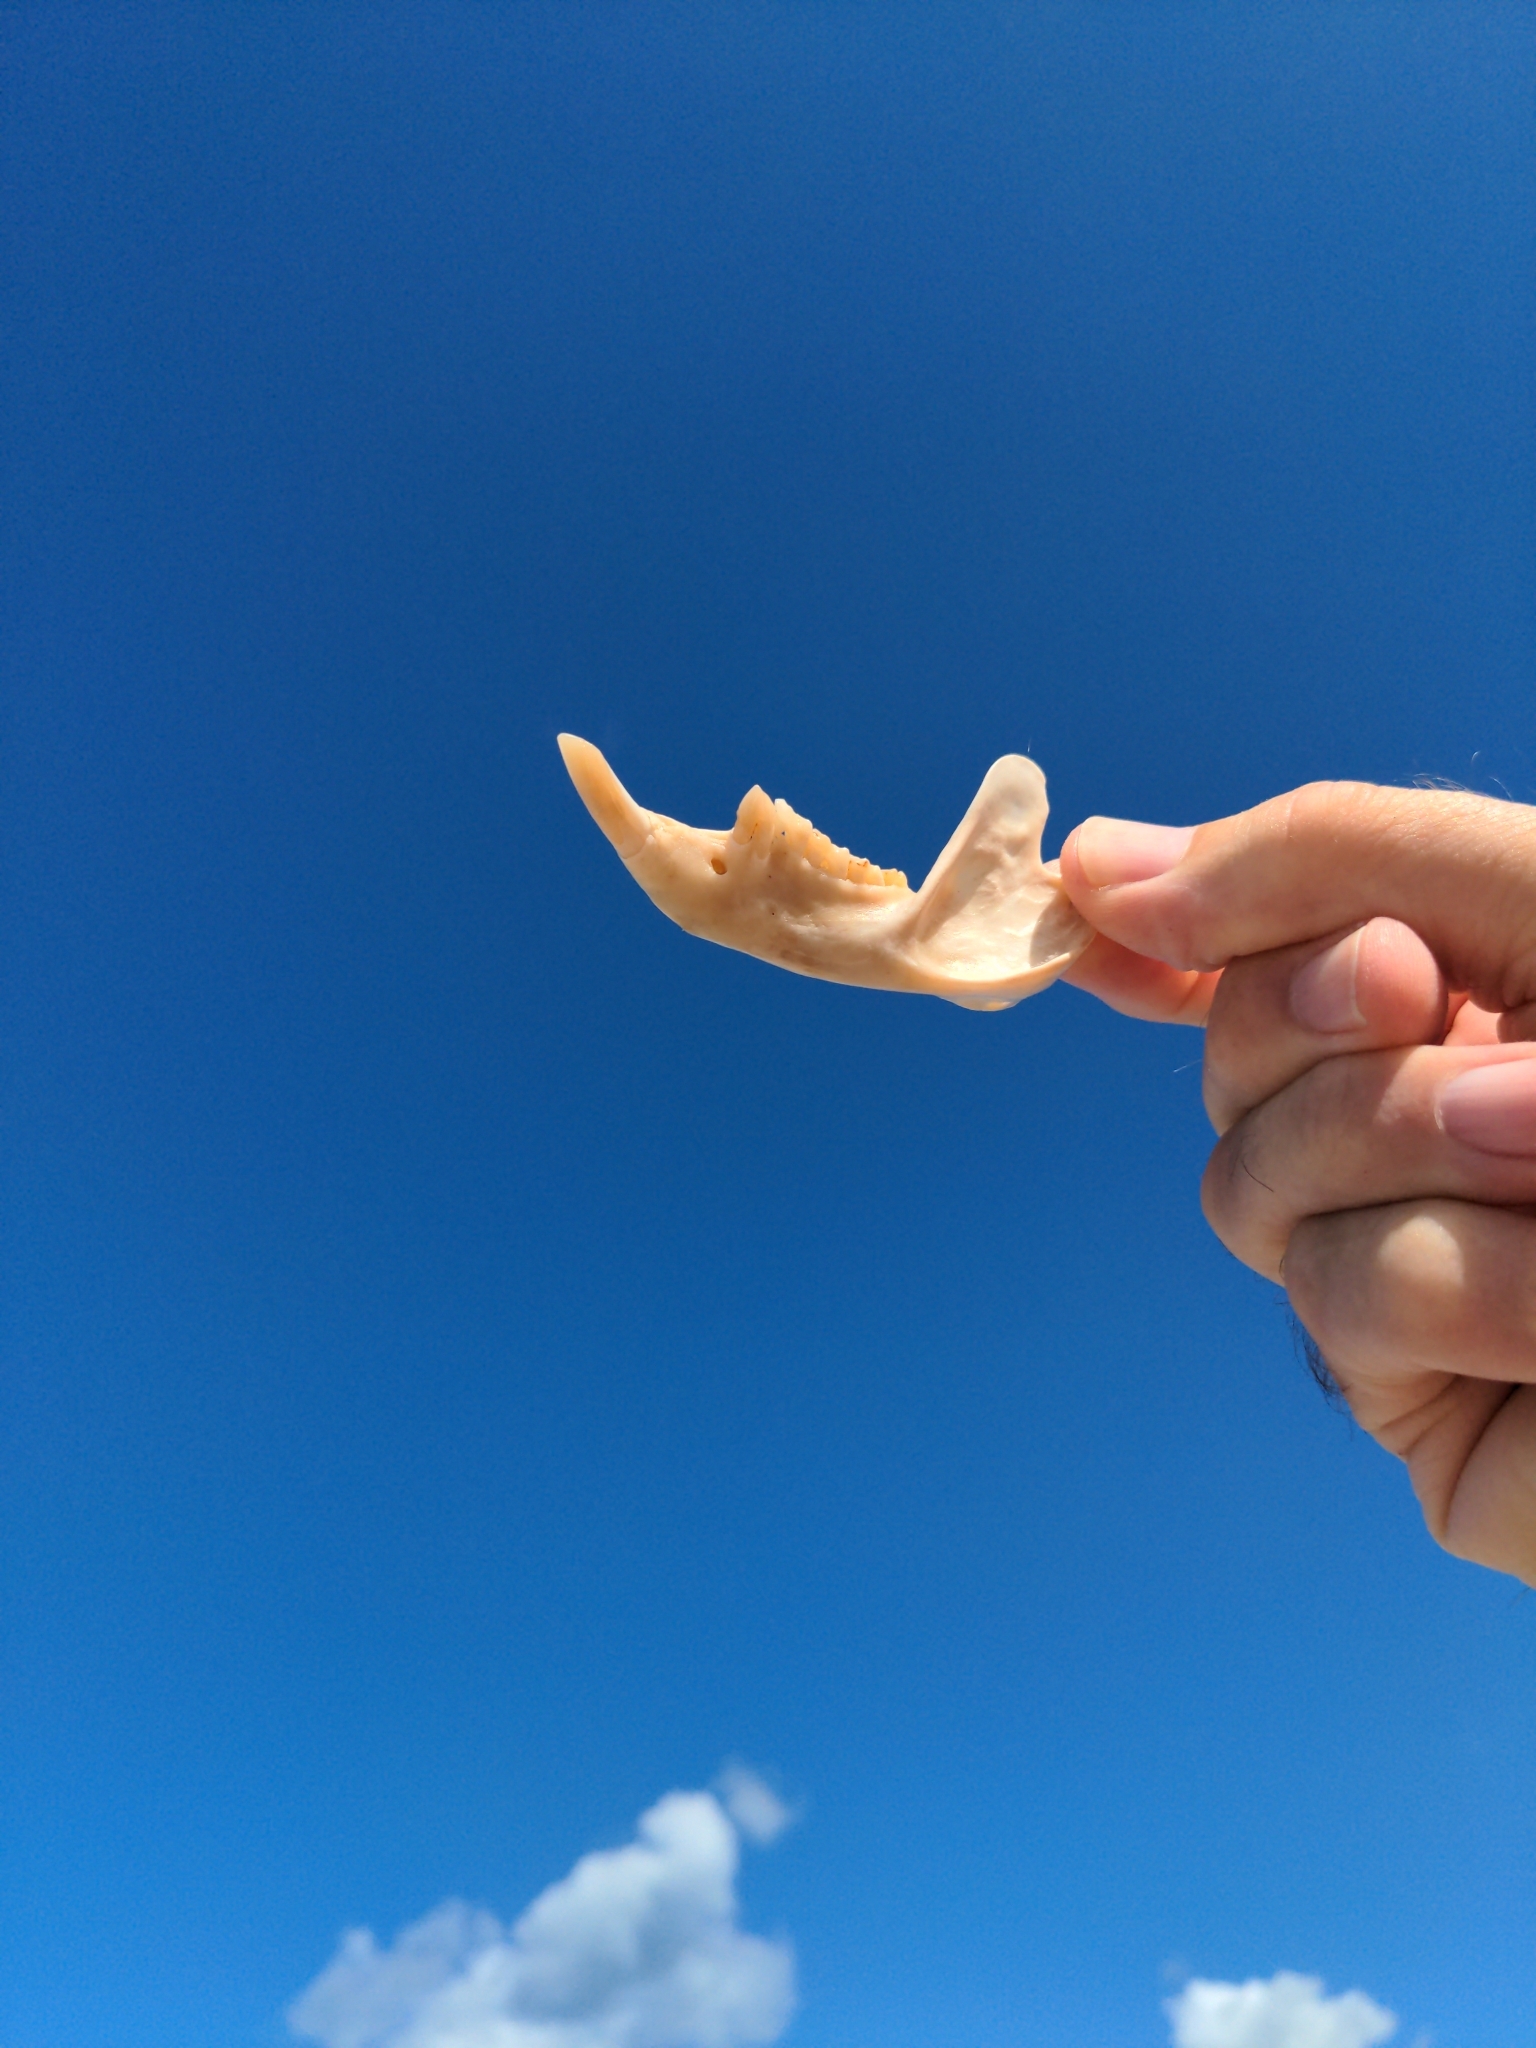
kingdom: Animalia
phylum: Chordata
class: Mammalia
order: Diprotodontia
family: Phalangeridae
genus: Trichosurus
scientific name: Trichosurus vulpecula
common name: Common brushtail
